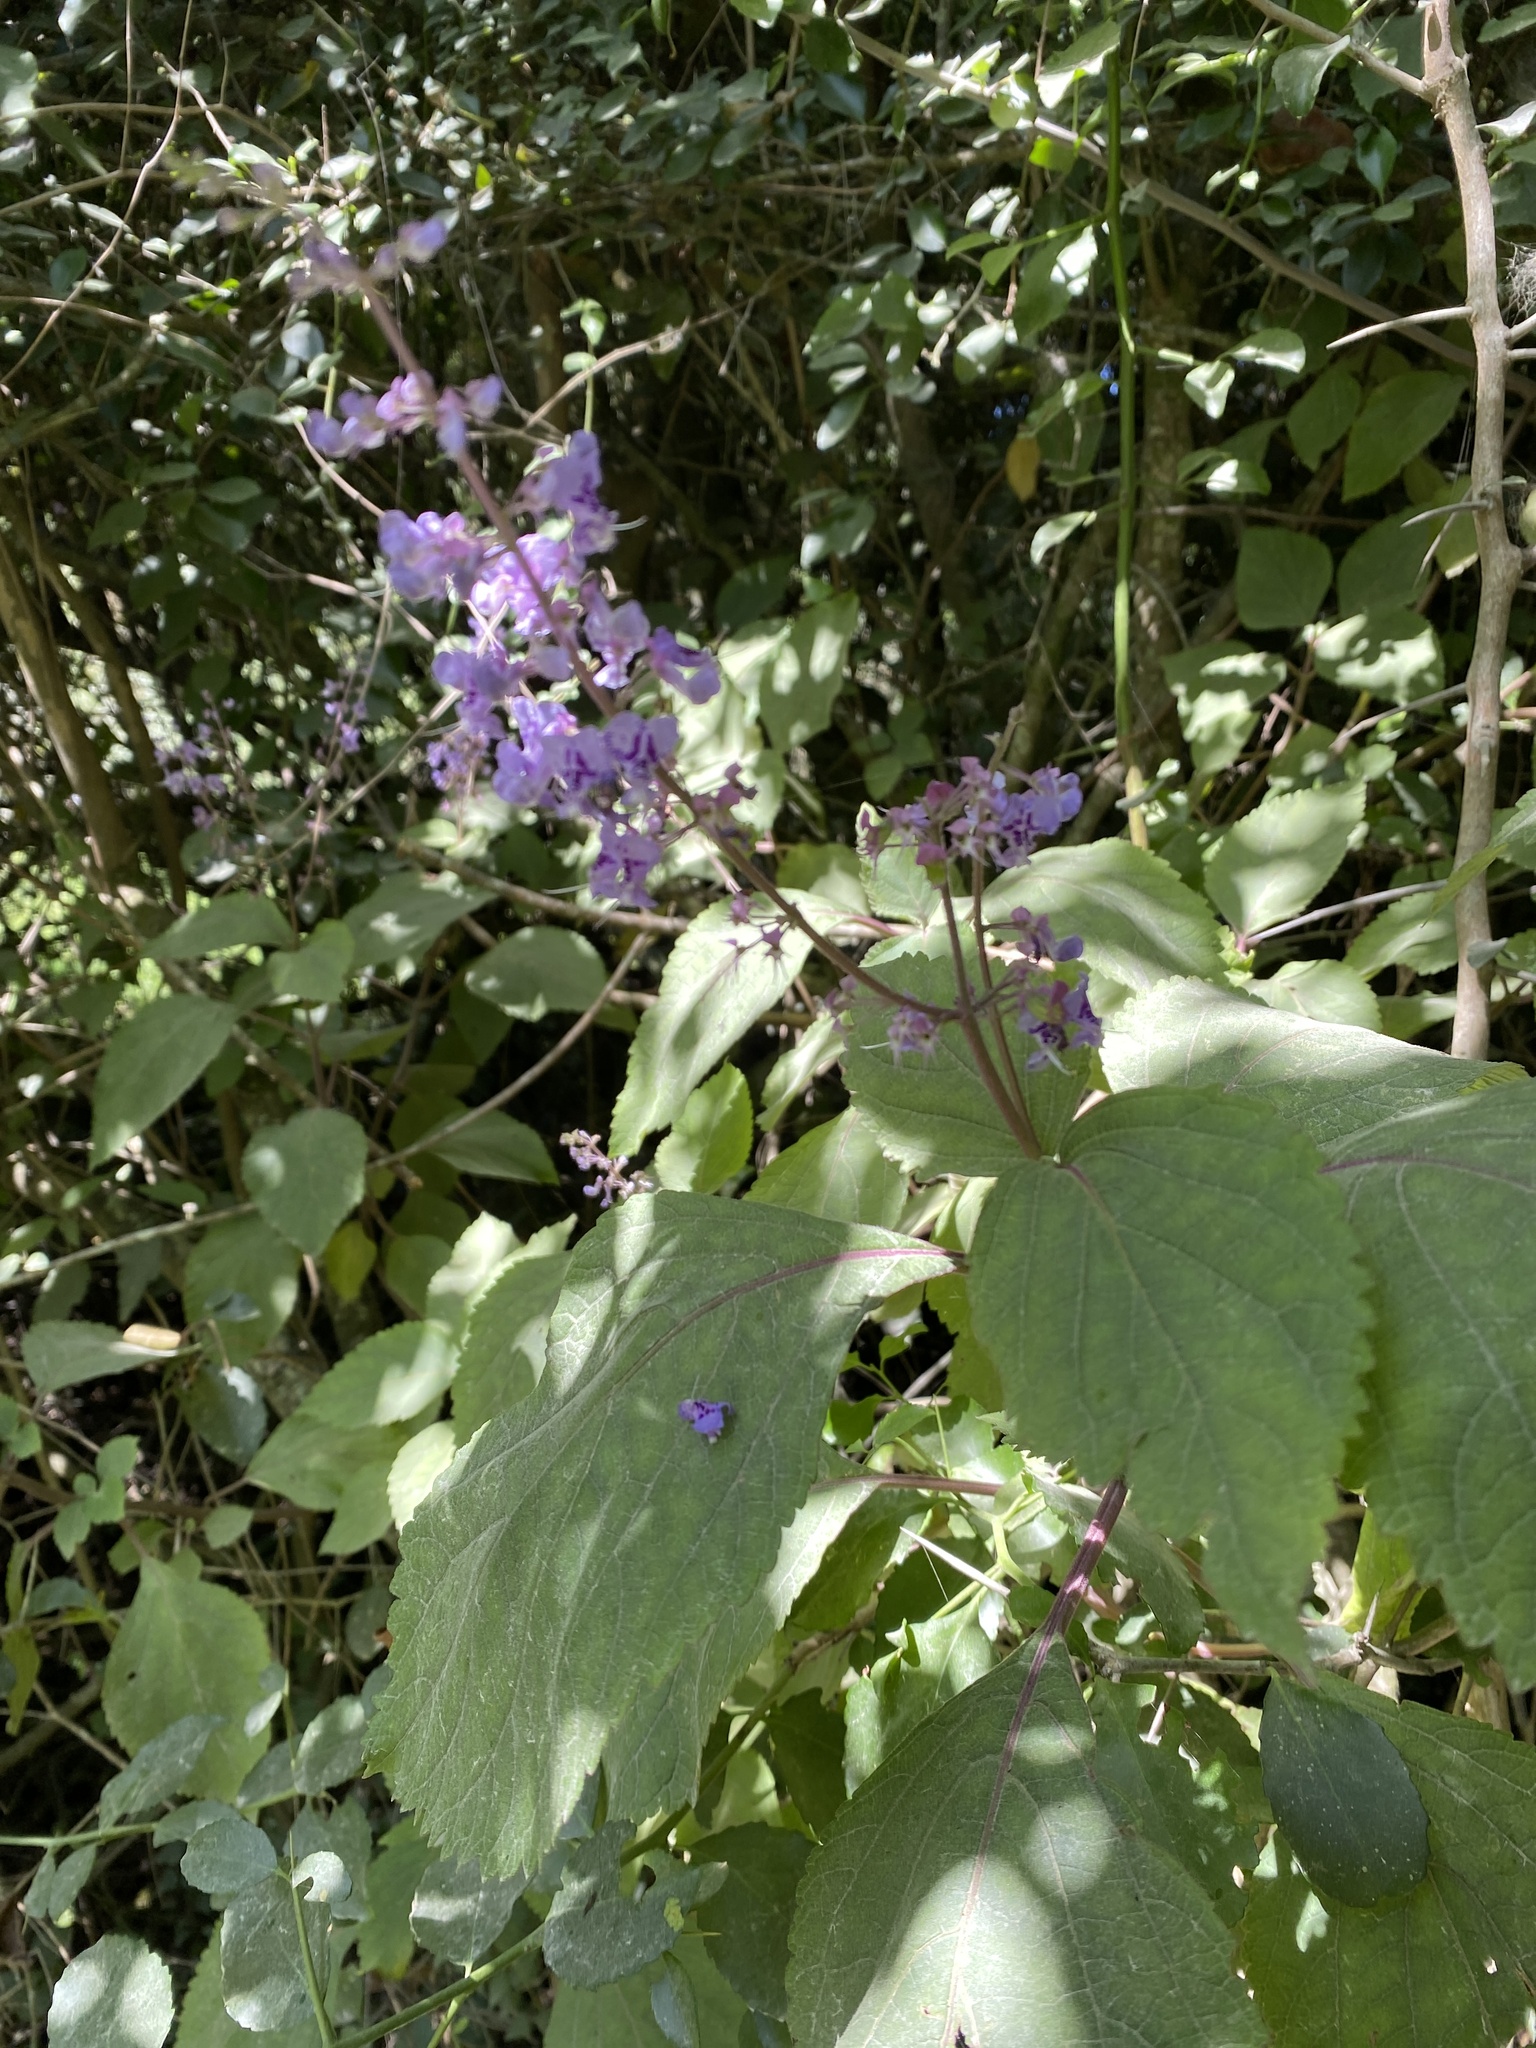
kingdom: Plantae
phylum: Tracheophyta
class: Magnoliopsida
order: Lamiales
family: Lamiaceae
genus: Plectranthus
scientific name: Plectranthus fruticosus
